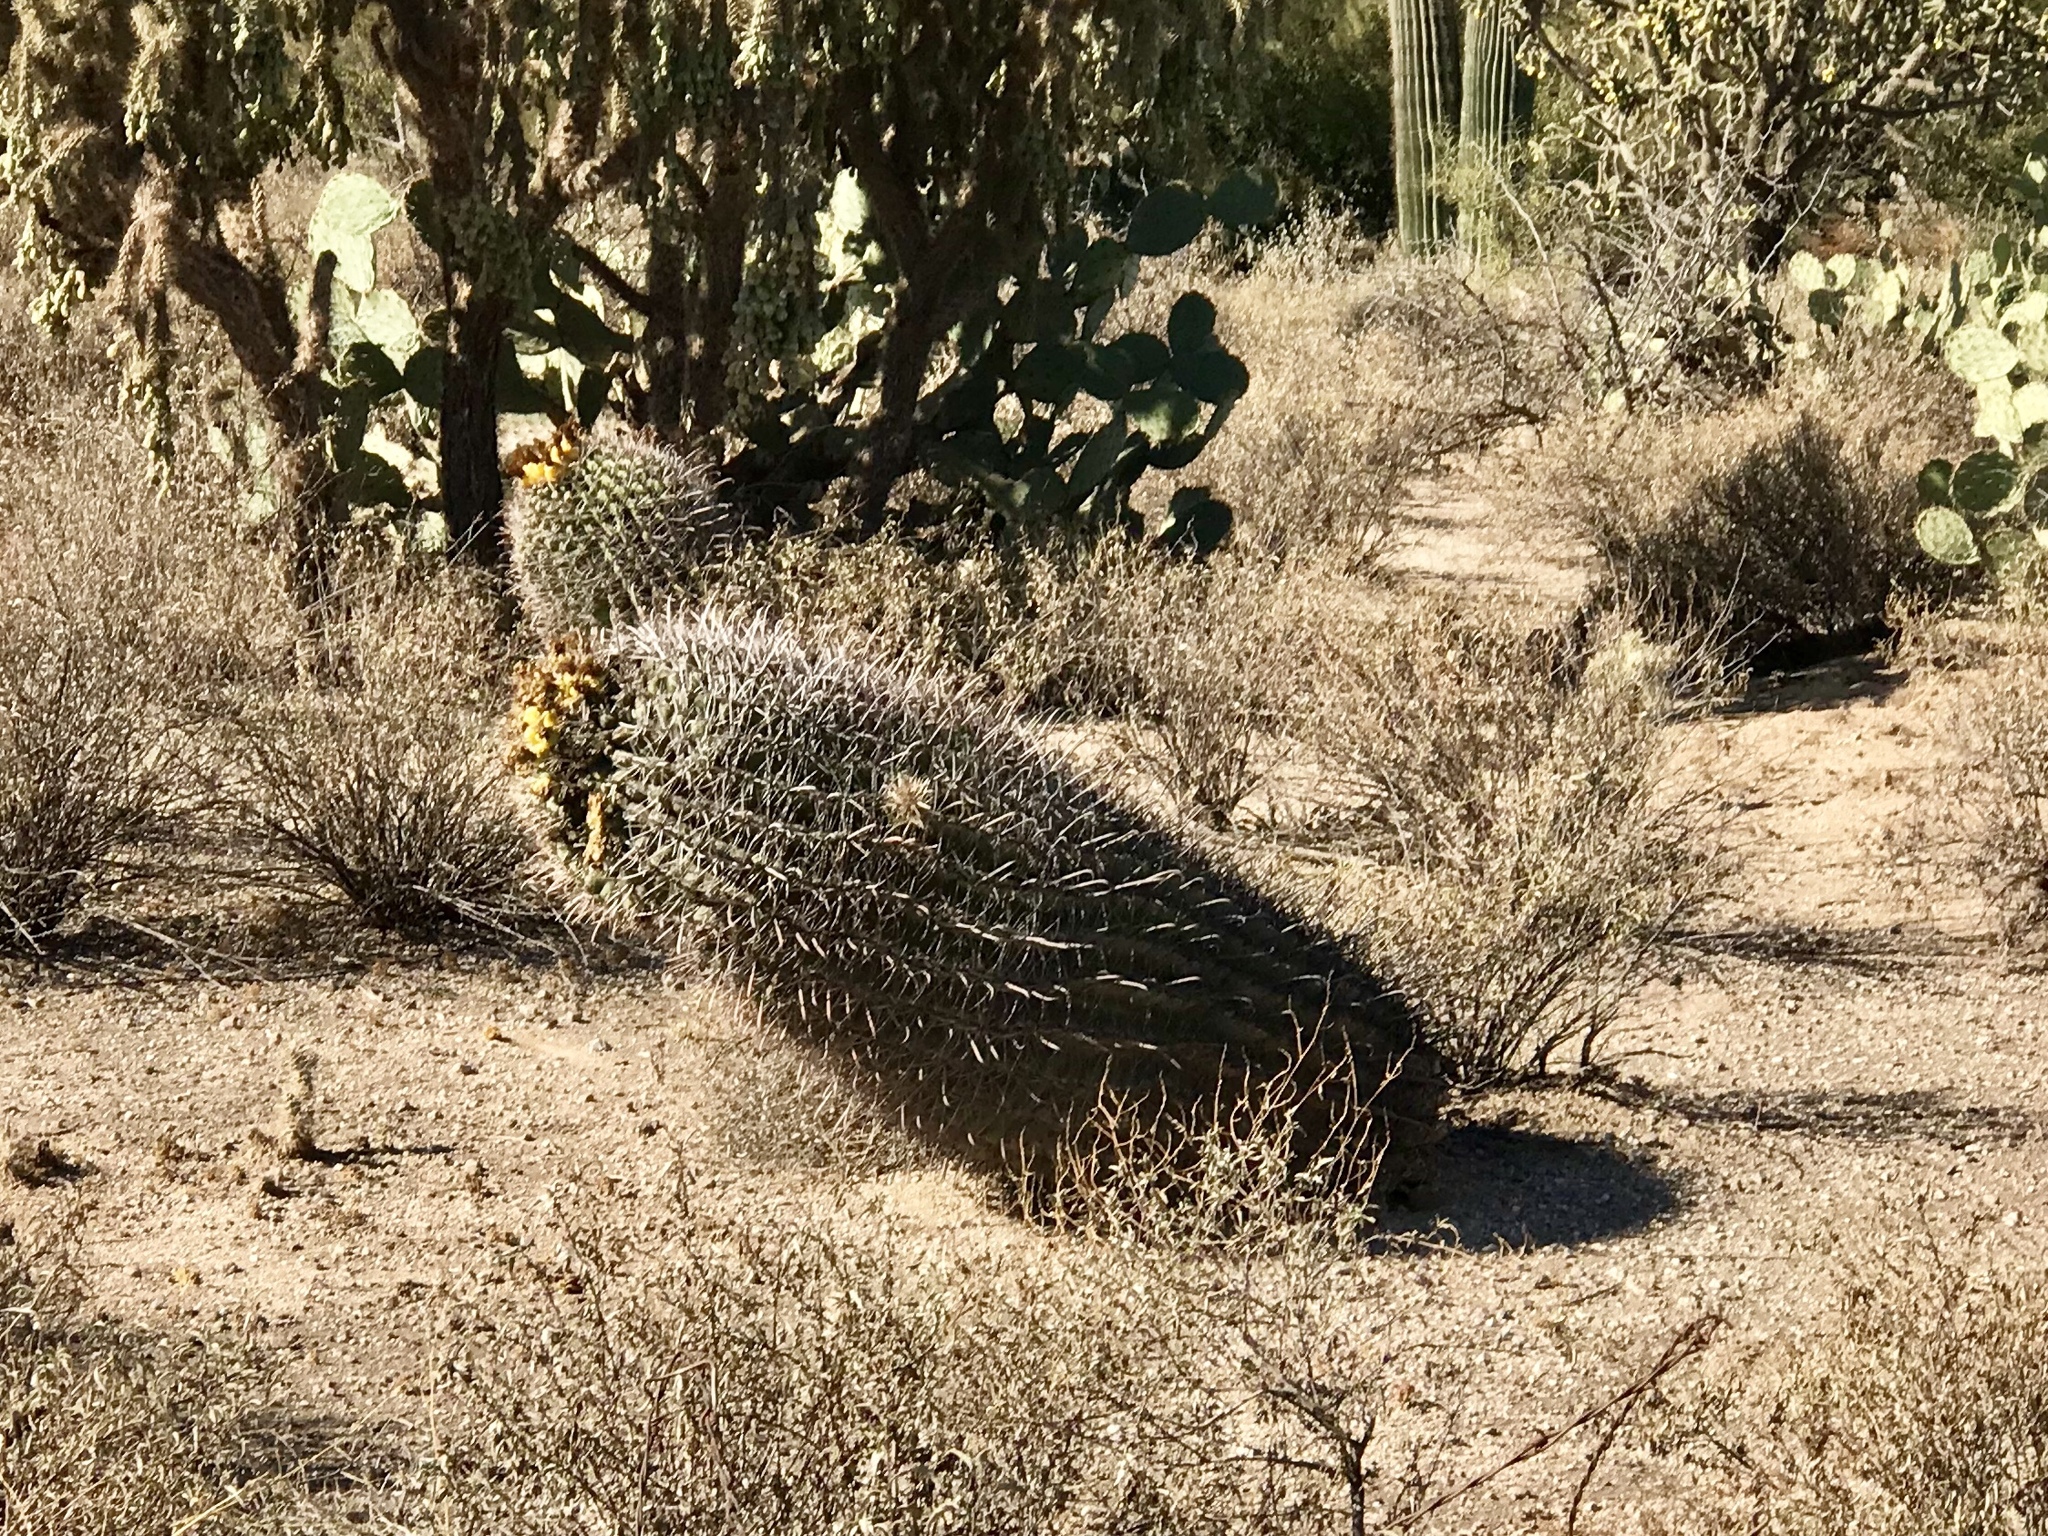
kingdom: Plantae
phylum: Tracheophyta
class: Magnoliopsida
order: Caryophyllales
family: Cactaceae
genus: Ferocactus
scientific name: Ferocactus wislizeni
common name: Candy barrel cactus
